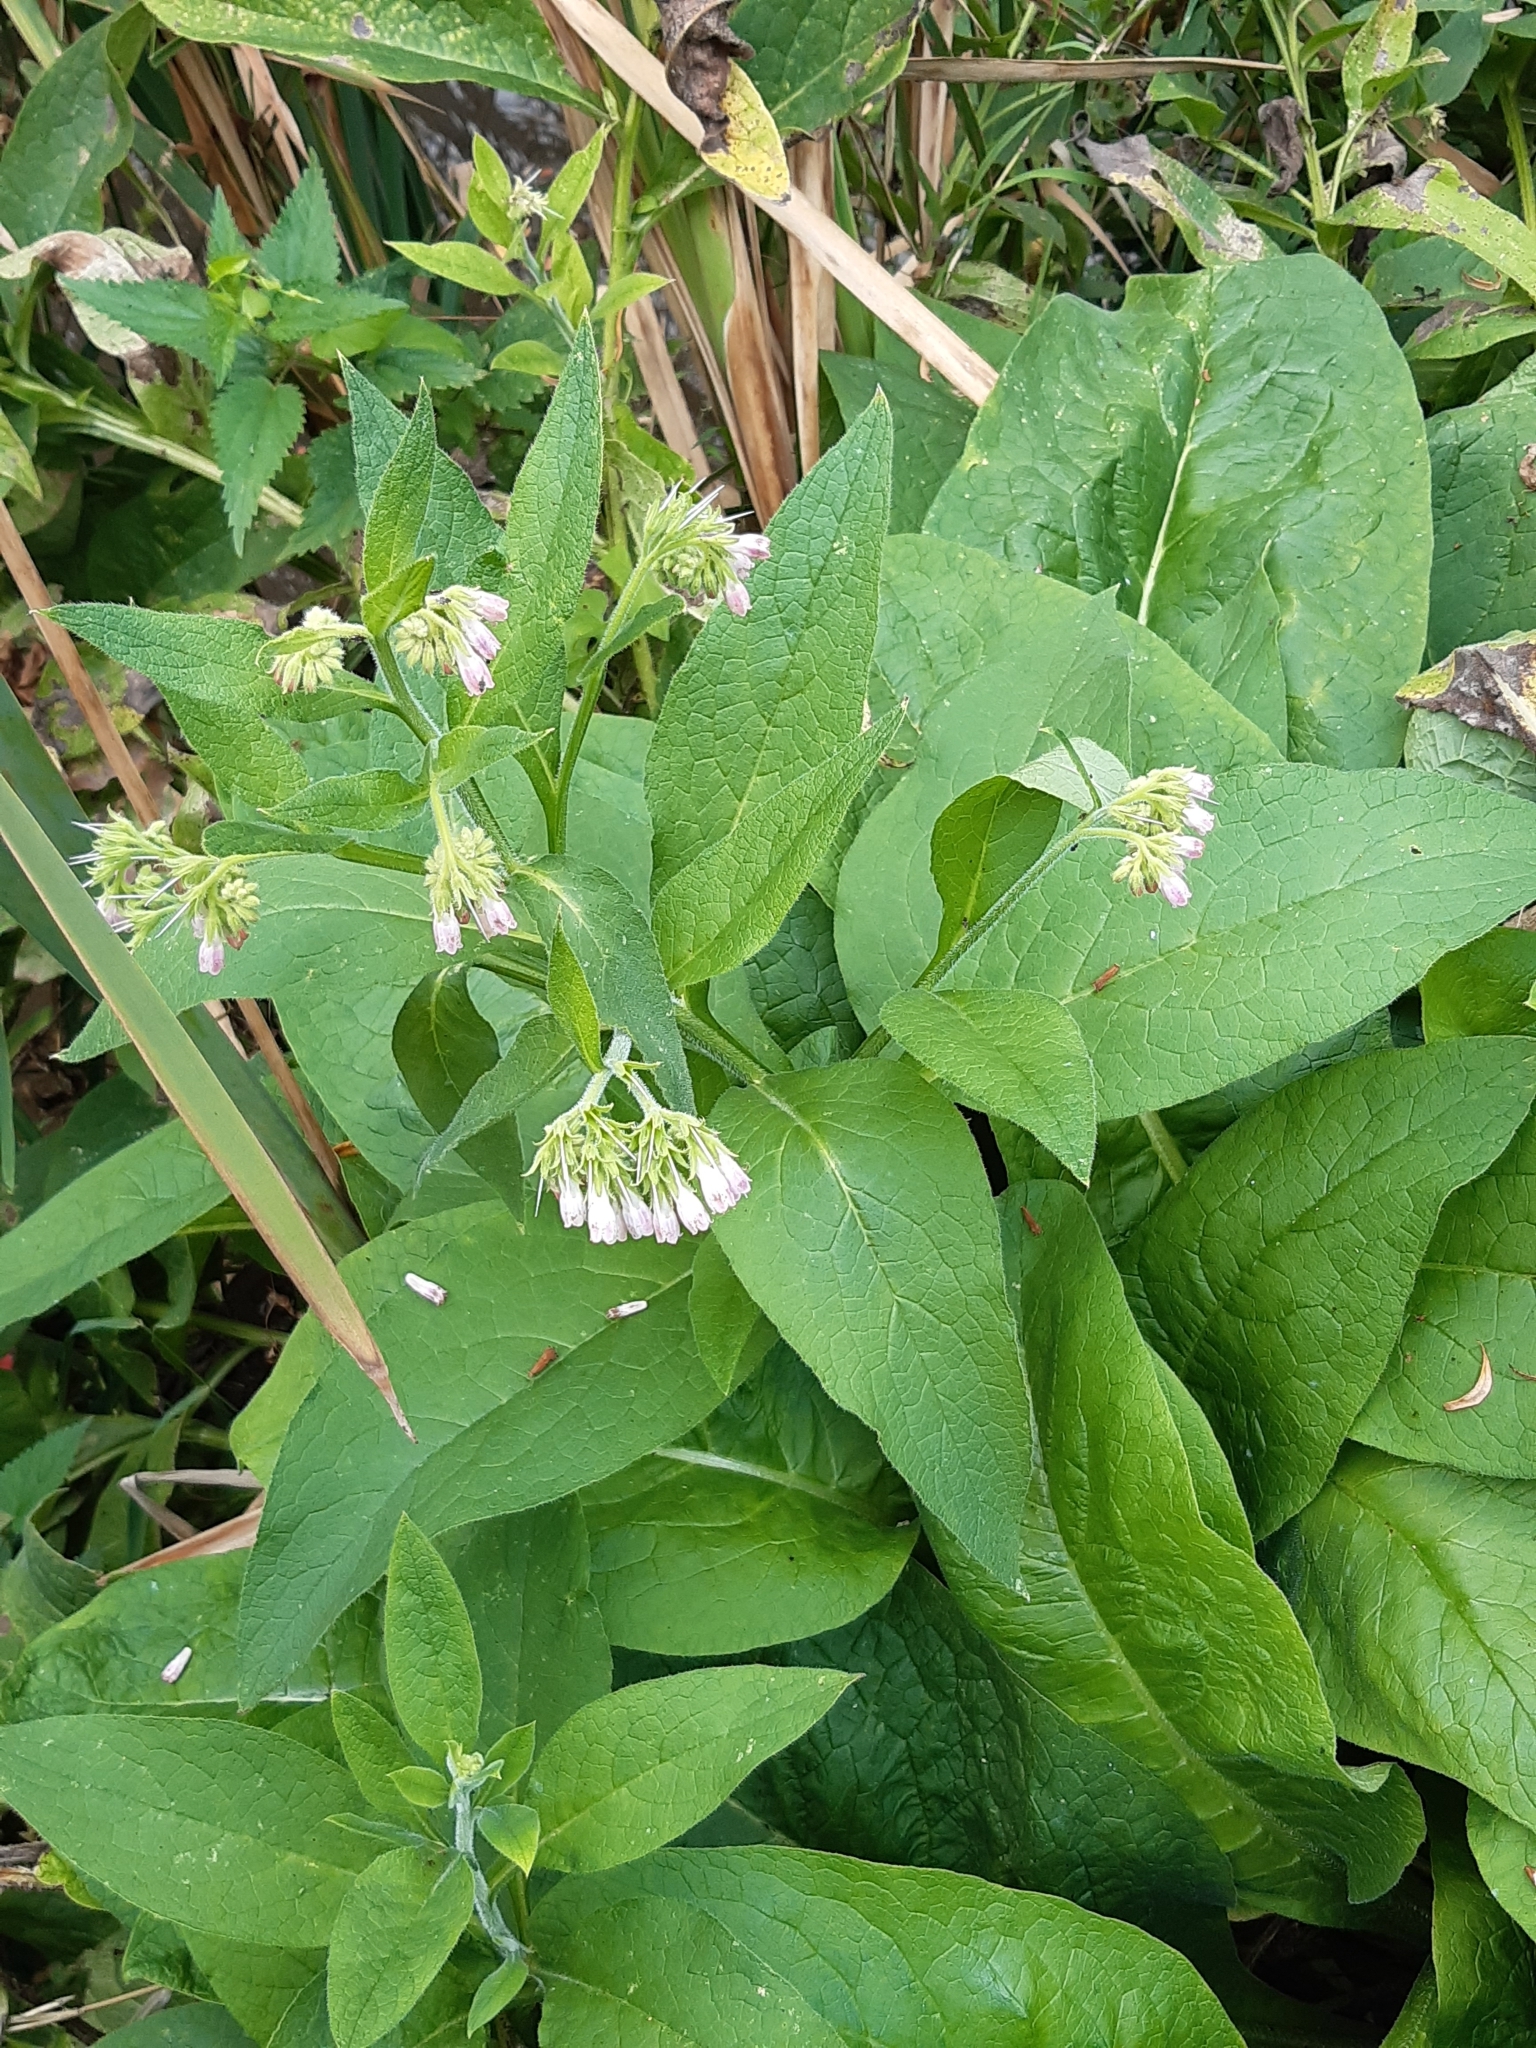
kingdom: Plantae
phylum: Tracheophyta
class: Magnoliopsida
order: Boraginales
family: Boraginaceae
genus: Symphytum
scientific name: Symphytum officinale
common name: Common comfrey
